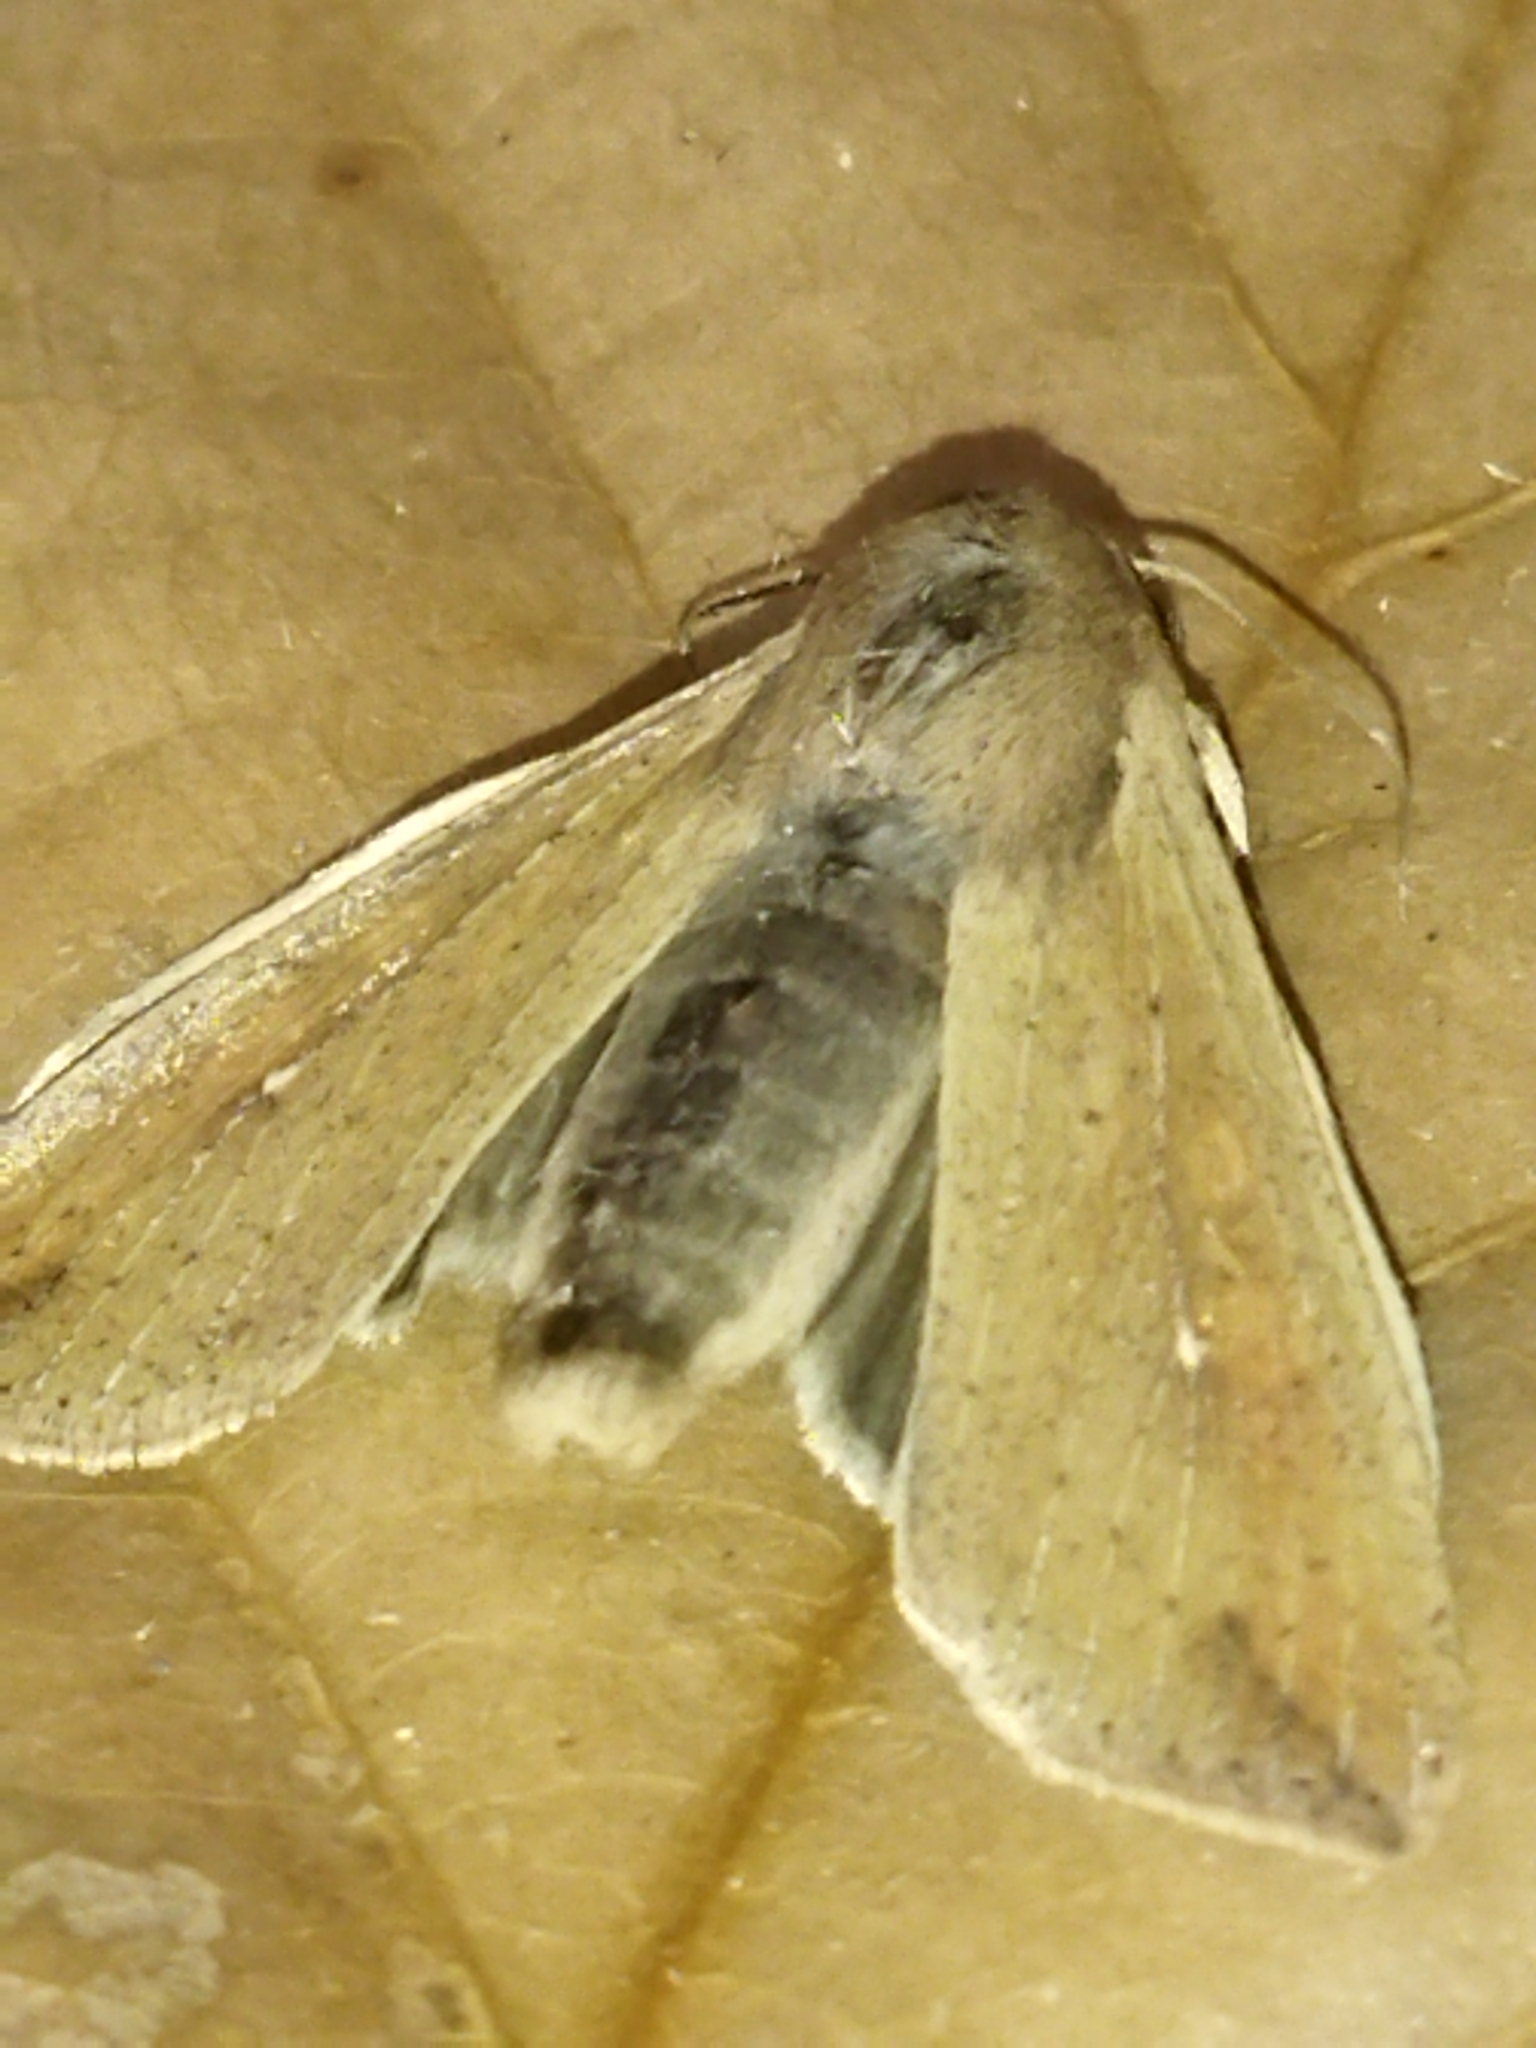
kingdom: Animalia
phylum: Arthropoda
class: Insecta
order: Lepidoptera
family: Noctuidae
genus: Mythimna
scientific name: Mythimna unipuncta
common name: White-speck
